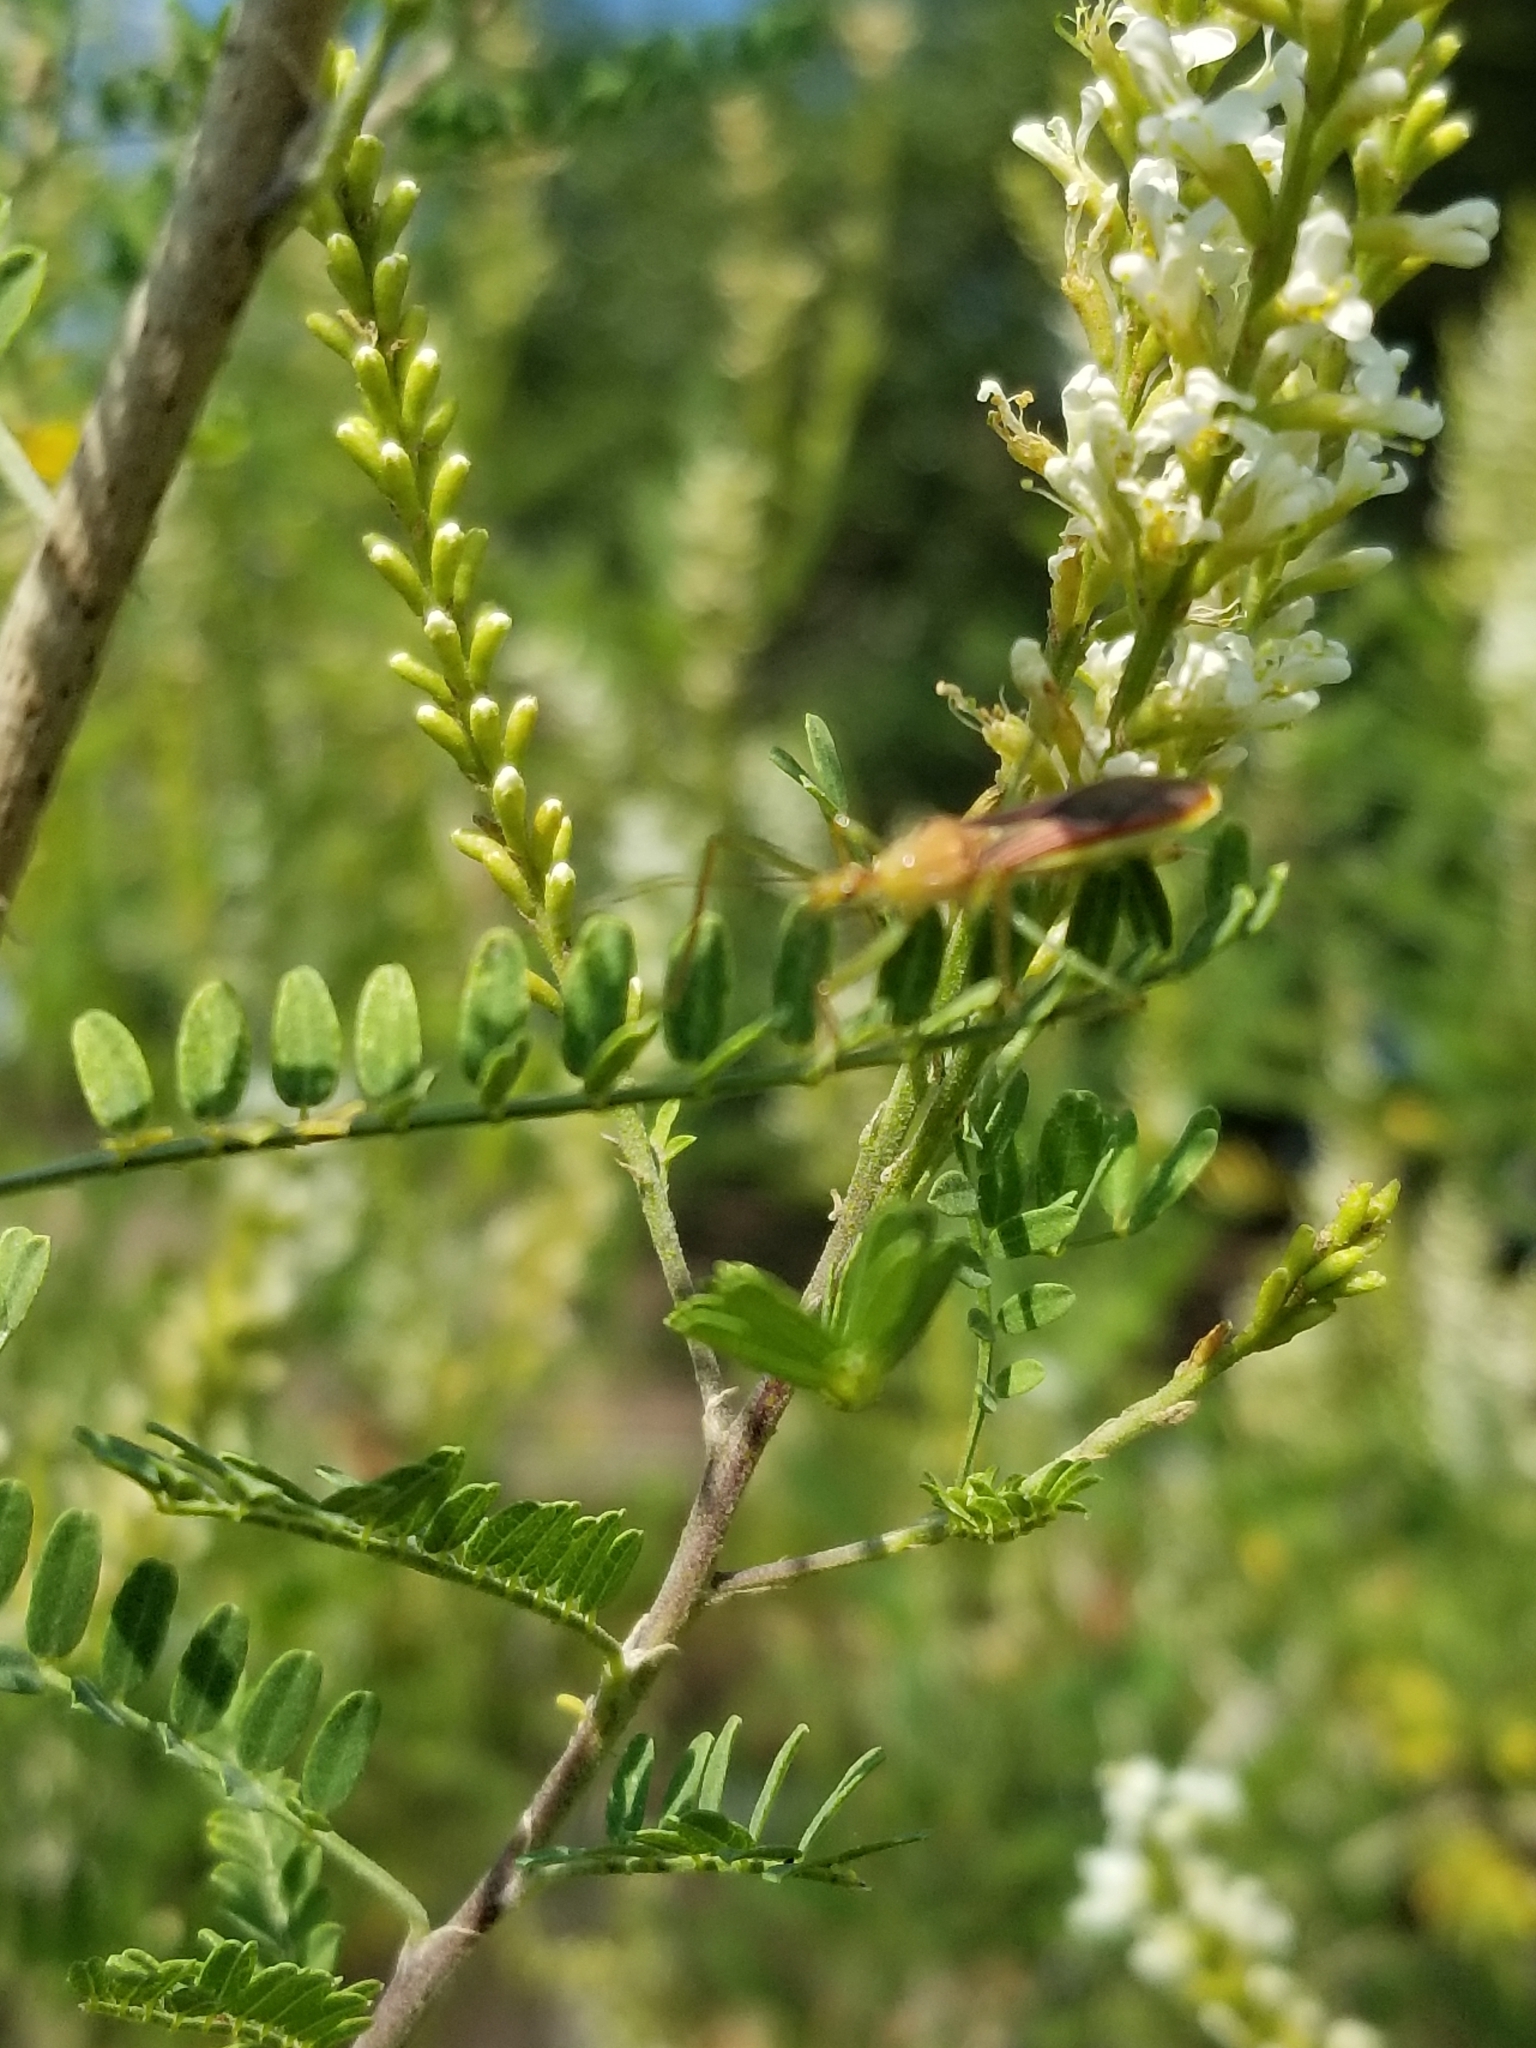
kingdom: Animalia
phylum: Arthropoda
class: Insecta
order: Hemiptera
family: Reduviidae
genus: Zelus
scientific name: Zelus renardii
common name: Assassin bug
